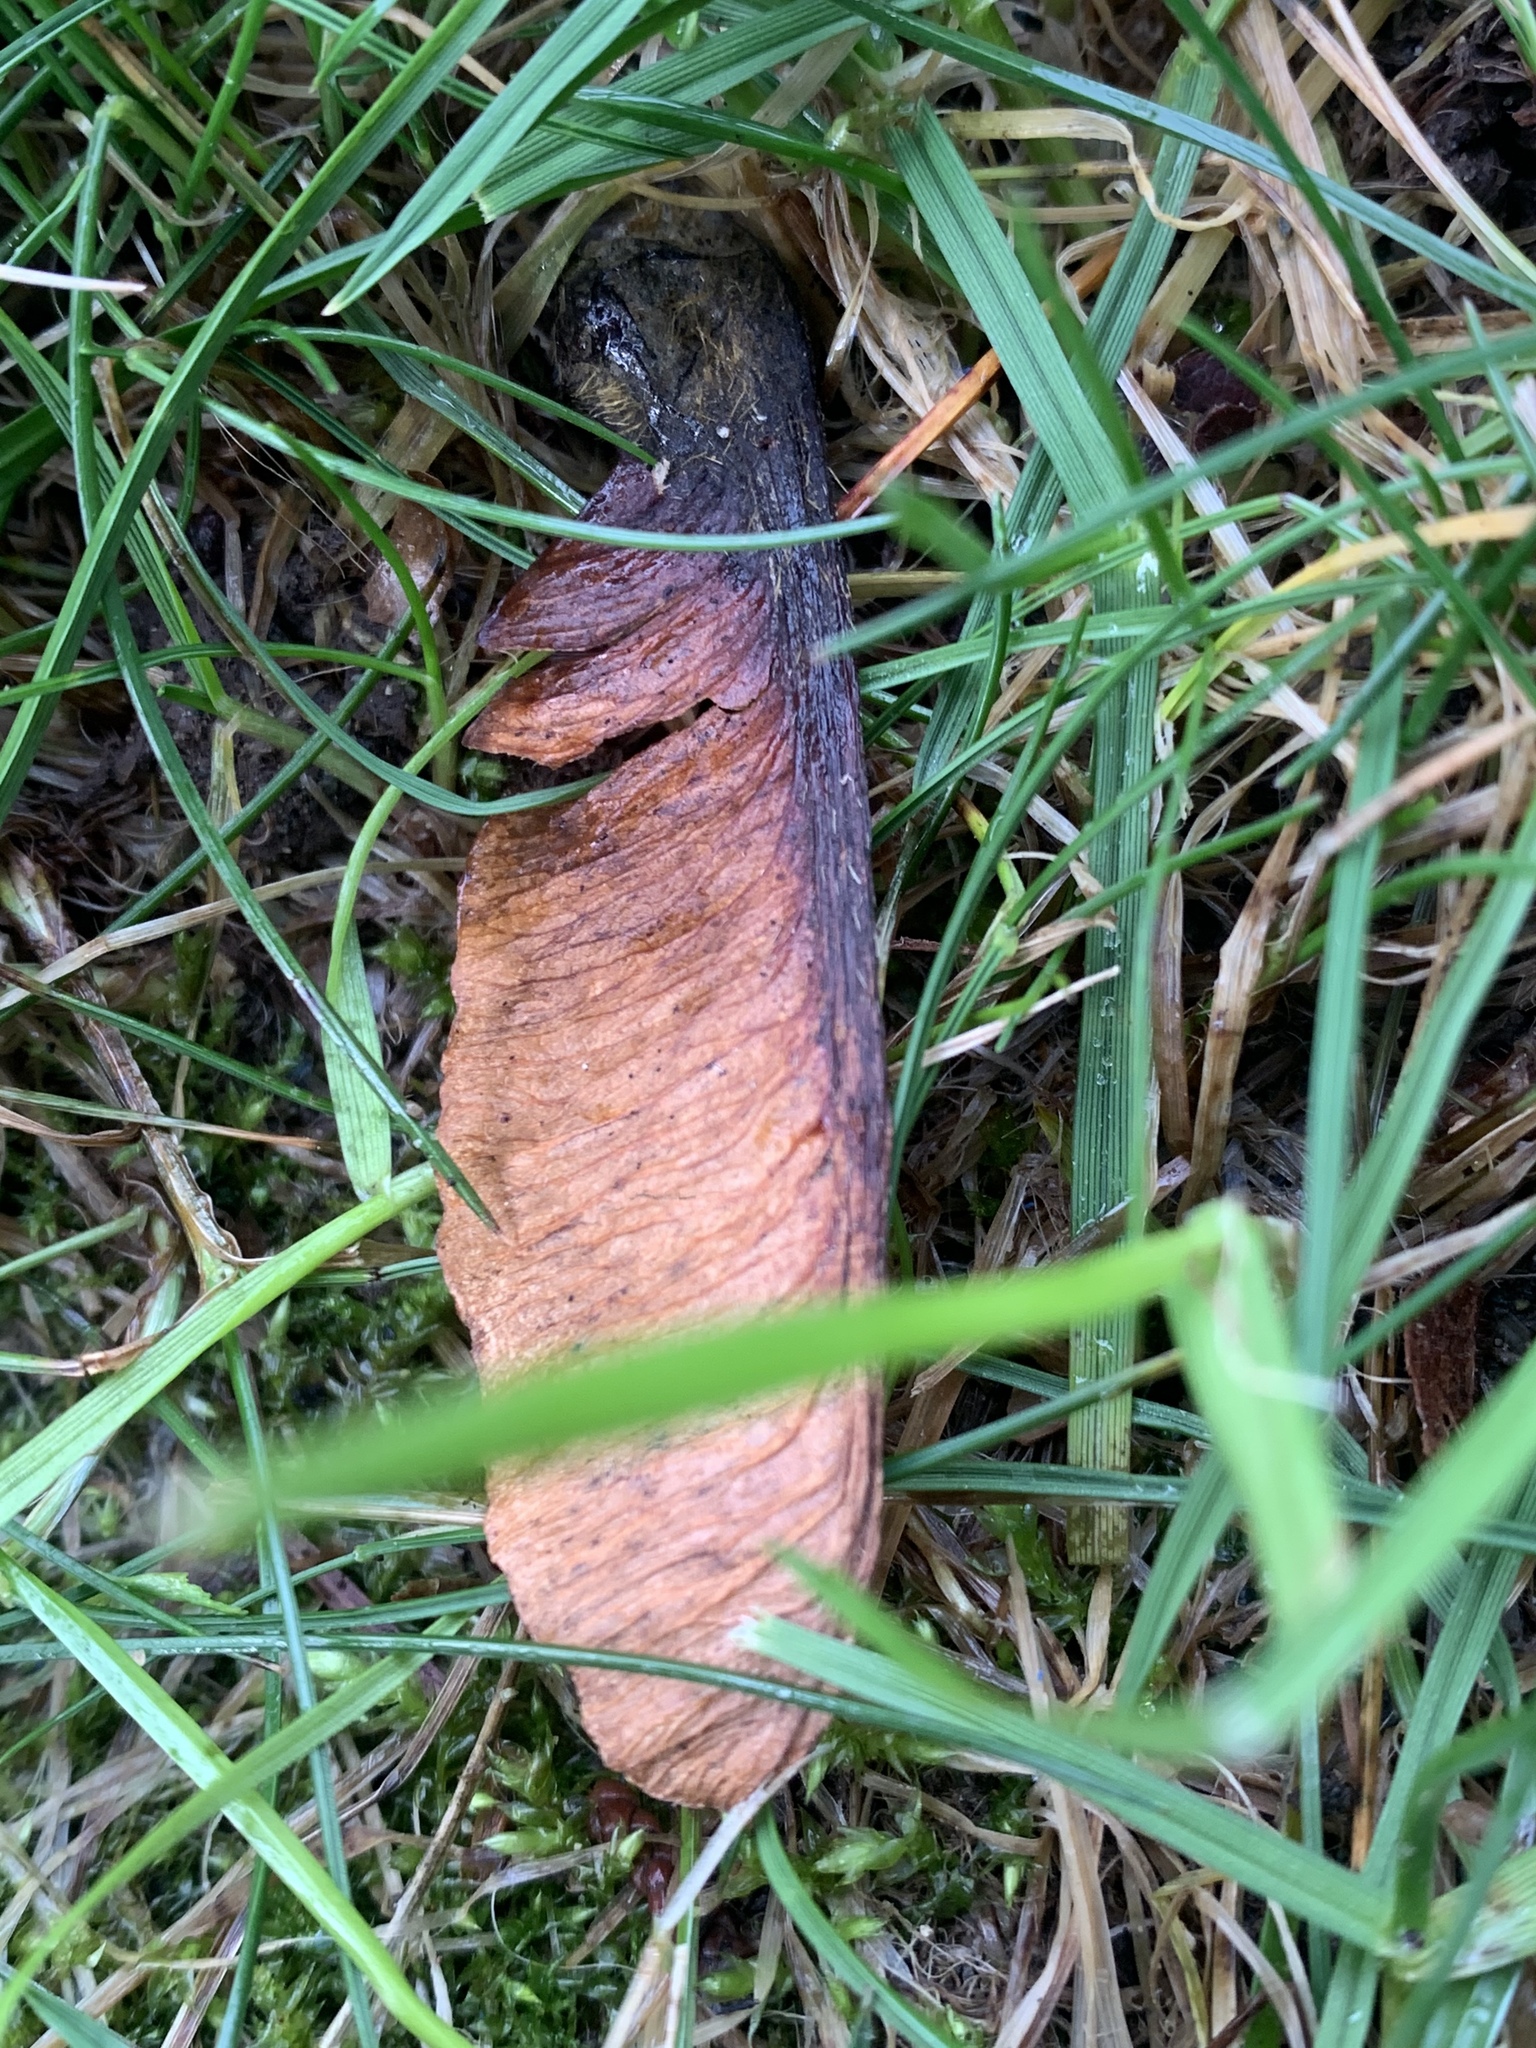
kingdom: Plantae
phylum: Tracheophyta
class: Magnoliopsida
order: Sapindales
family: Sapindaceae
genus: Acer
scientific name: Acer macrophyllum
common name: Oregon maple
